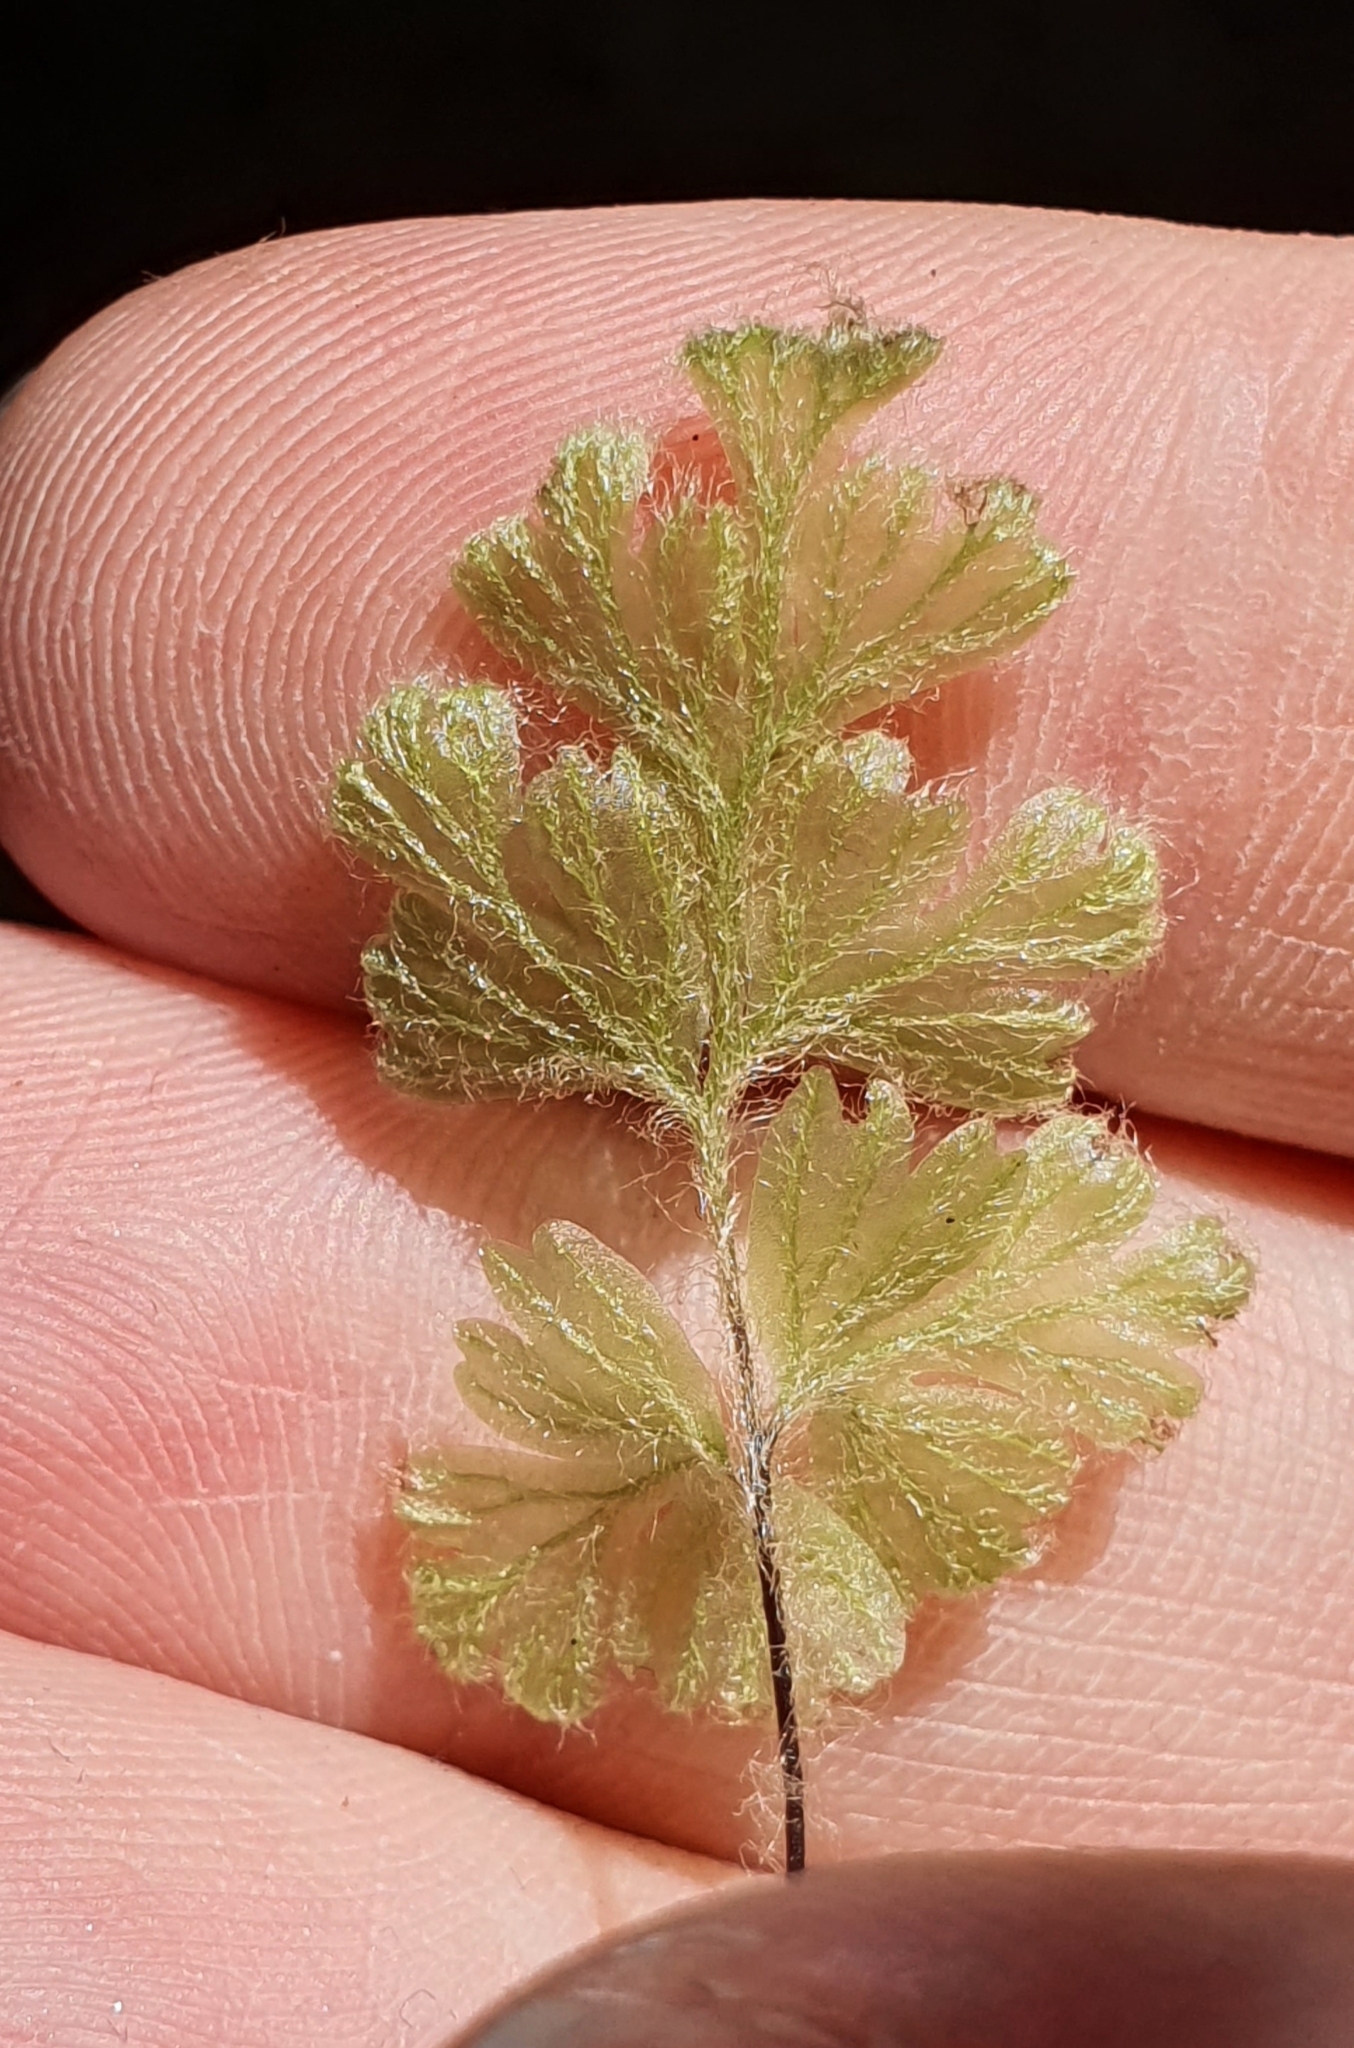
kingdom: Plantae
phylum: Tracheophyta
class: Polypodiopsida
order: Hymenophyllales
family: Hymenophyllaceae
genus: Hymenophyllum
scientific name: Hymenophyllum rufescens
